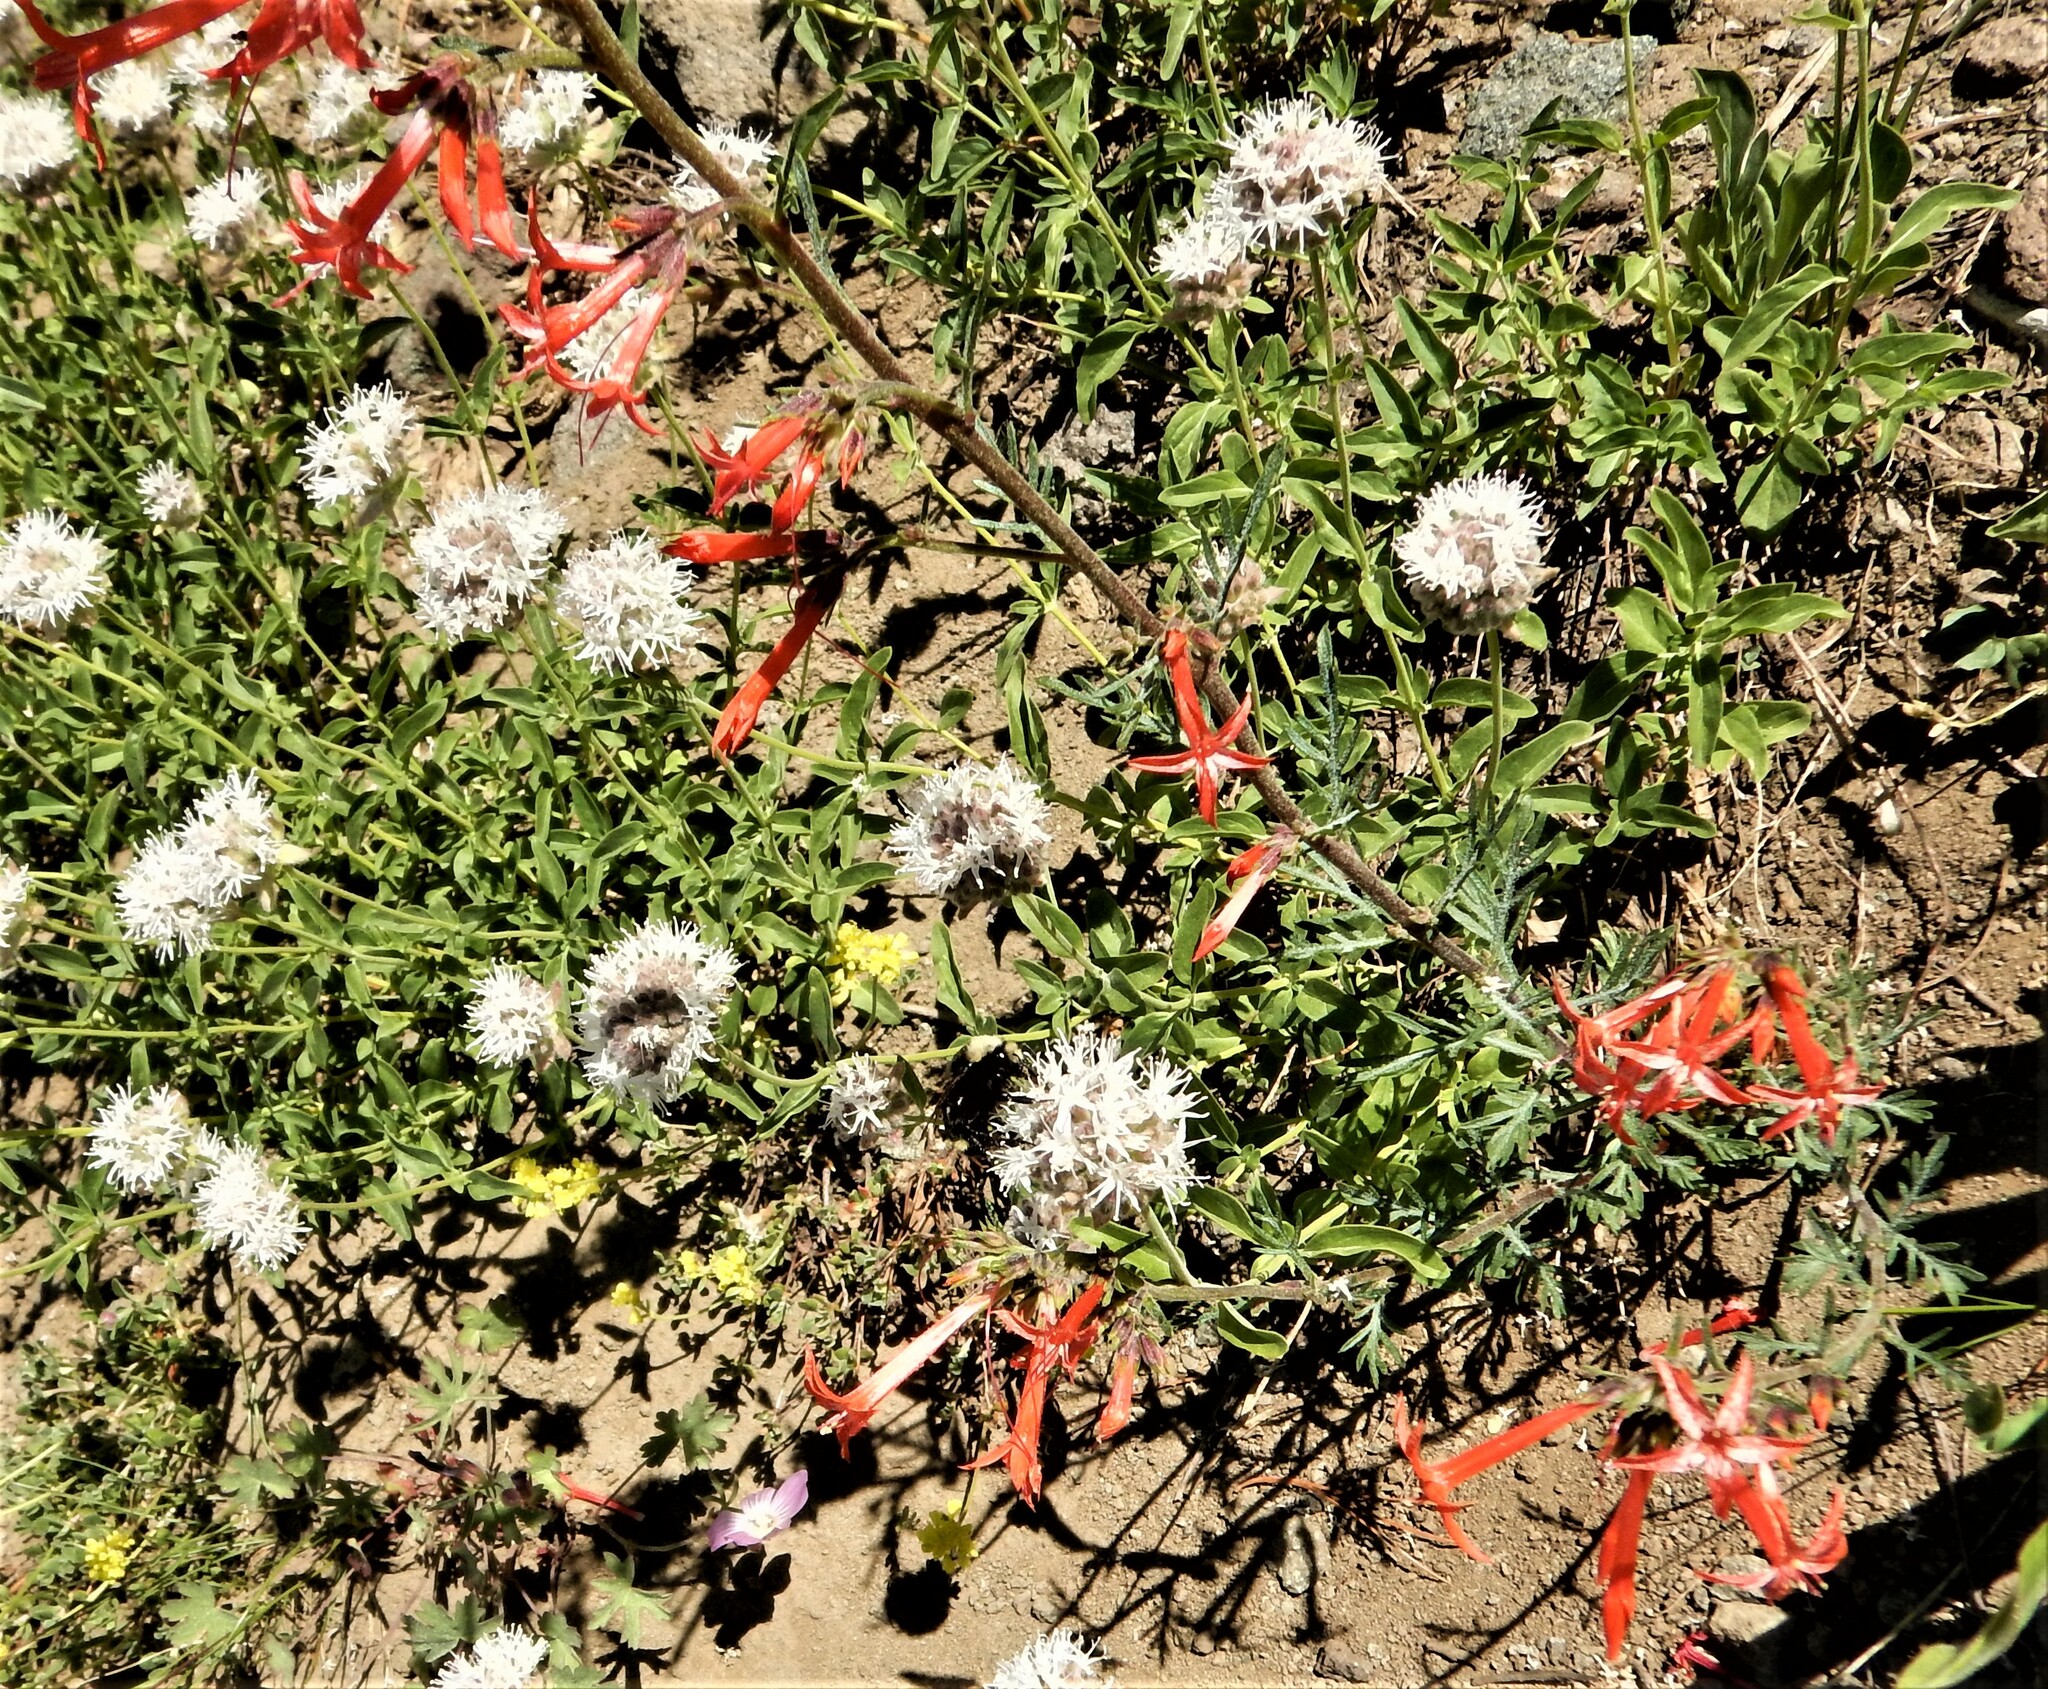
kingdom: Plantae
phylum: Tracheophyta
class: Magnoliopsida
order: Ericales
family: Polemoniaceae
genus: Ipomopsis
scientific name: Ipomopsis aggregata
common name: Scarlet gilia
